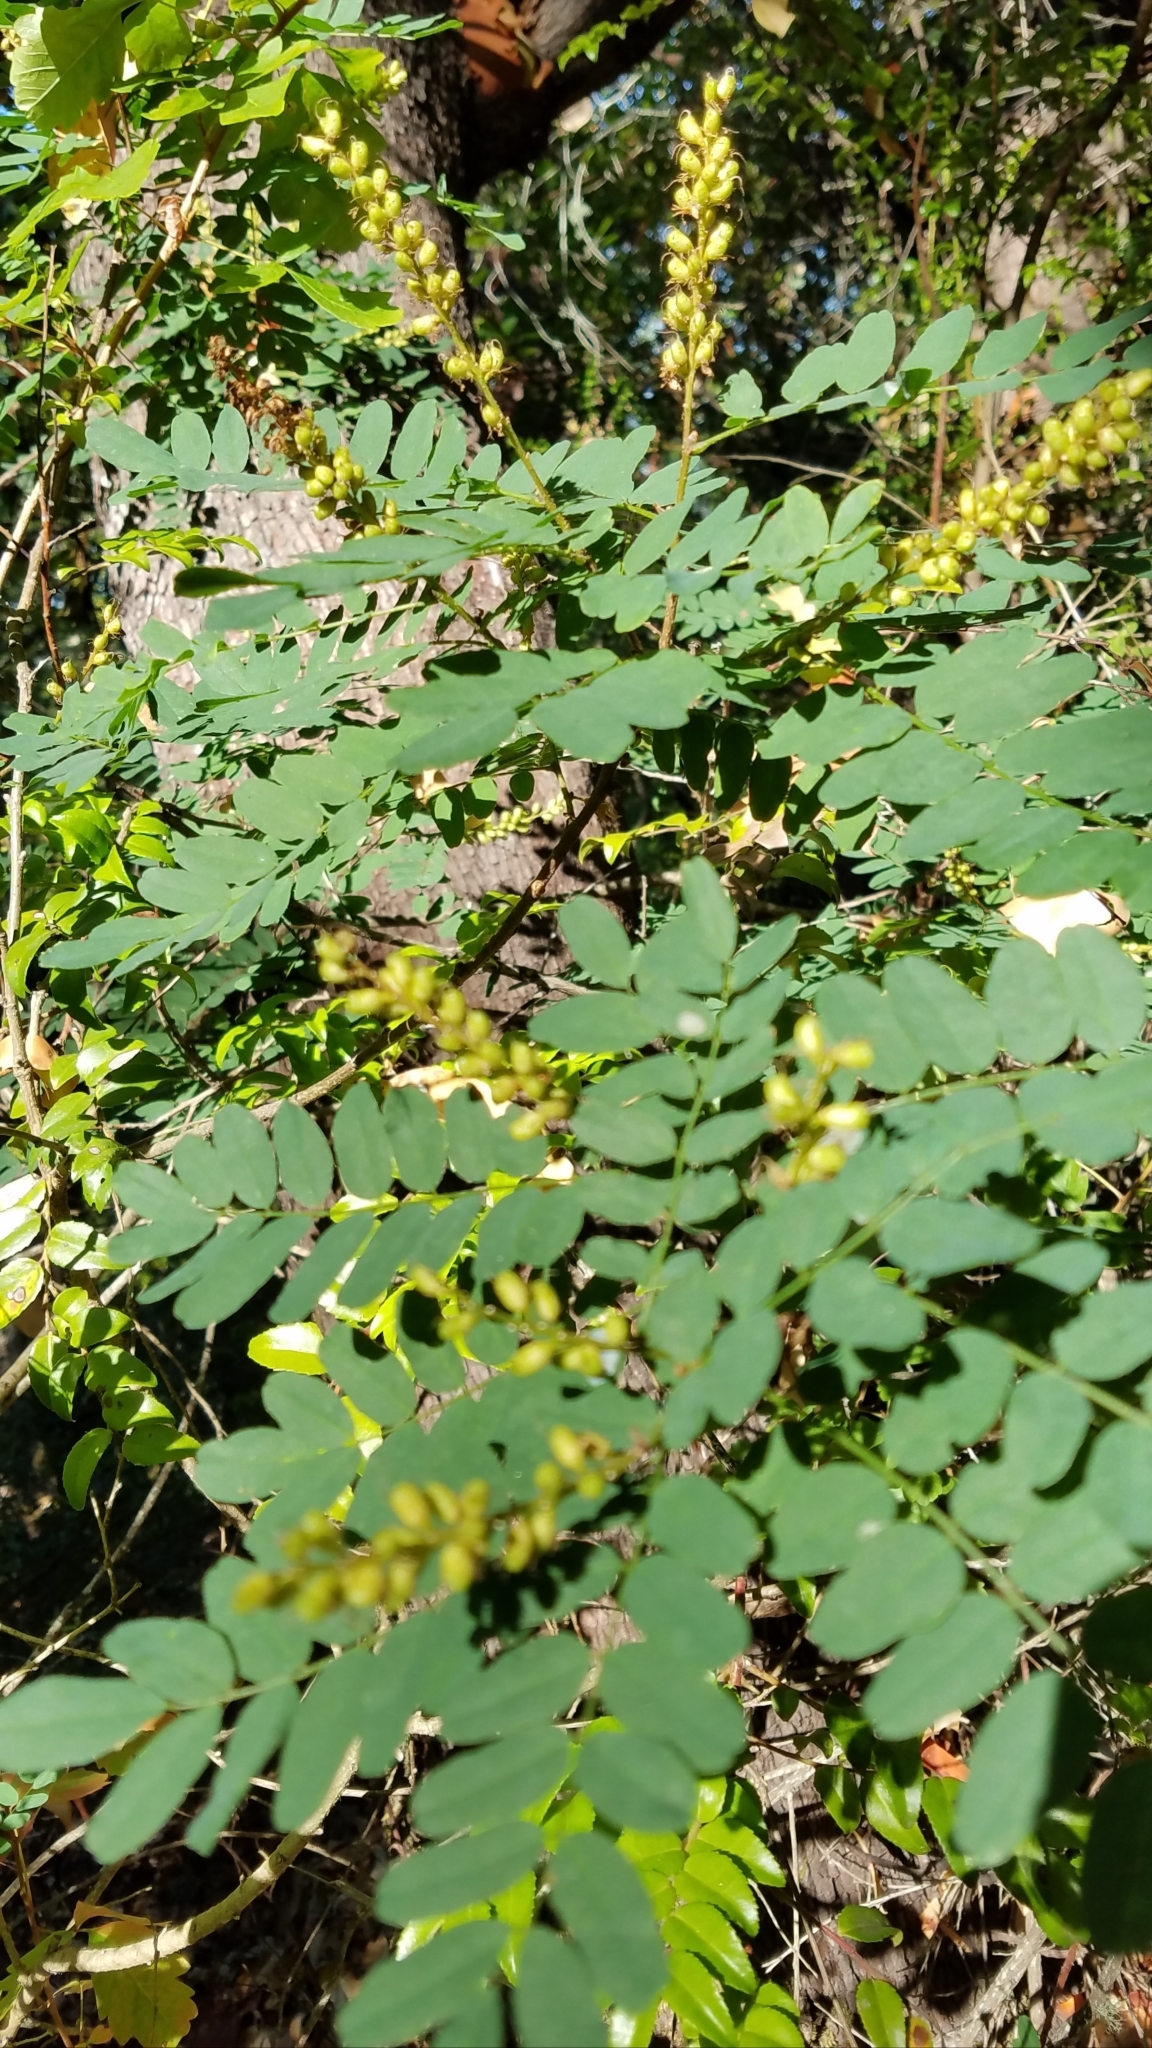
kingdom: Plantae
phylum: Tracheophyta
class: Magnoliopsida
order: Fabales
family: Fabaceae
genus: Amorpha
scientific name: Amorpha californica
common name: California indigobush
